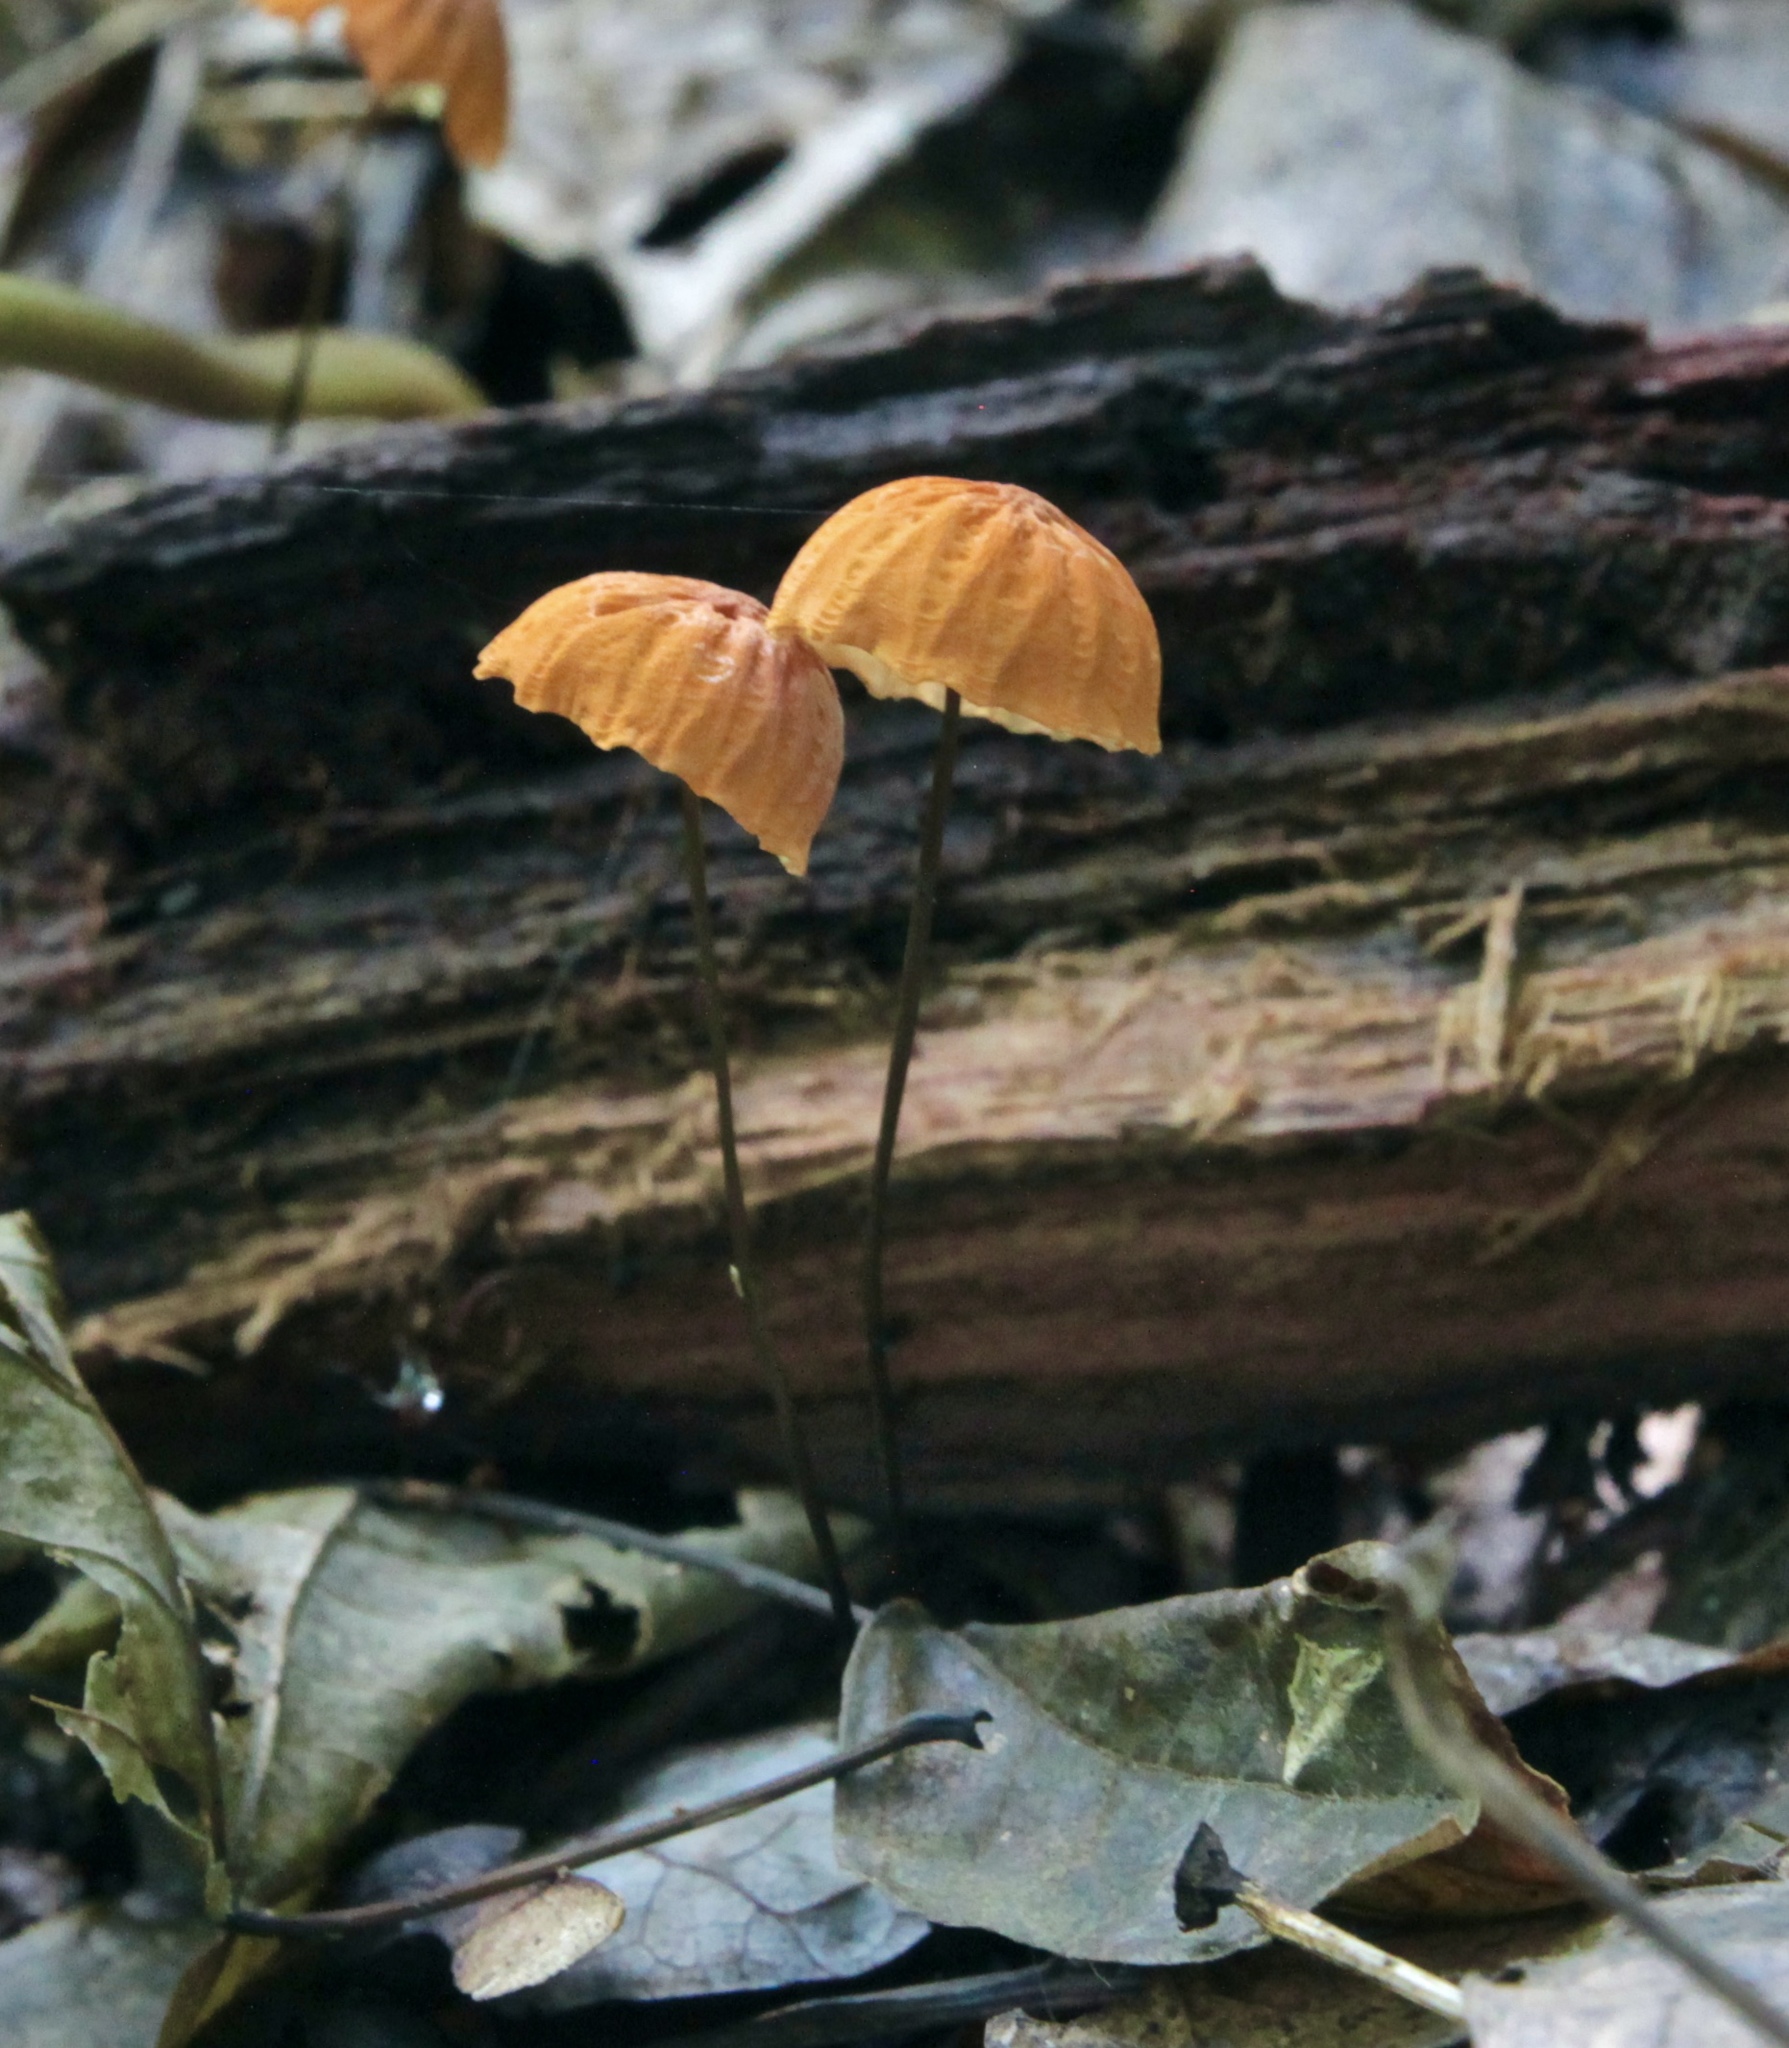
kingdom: Fungi
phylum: Basidiomycota
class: Agaricomycetes
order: Agaricales
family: Marasmiaceae
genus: Marasmius
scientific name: Marasmius siccus
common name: Orange pinwheel
